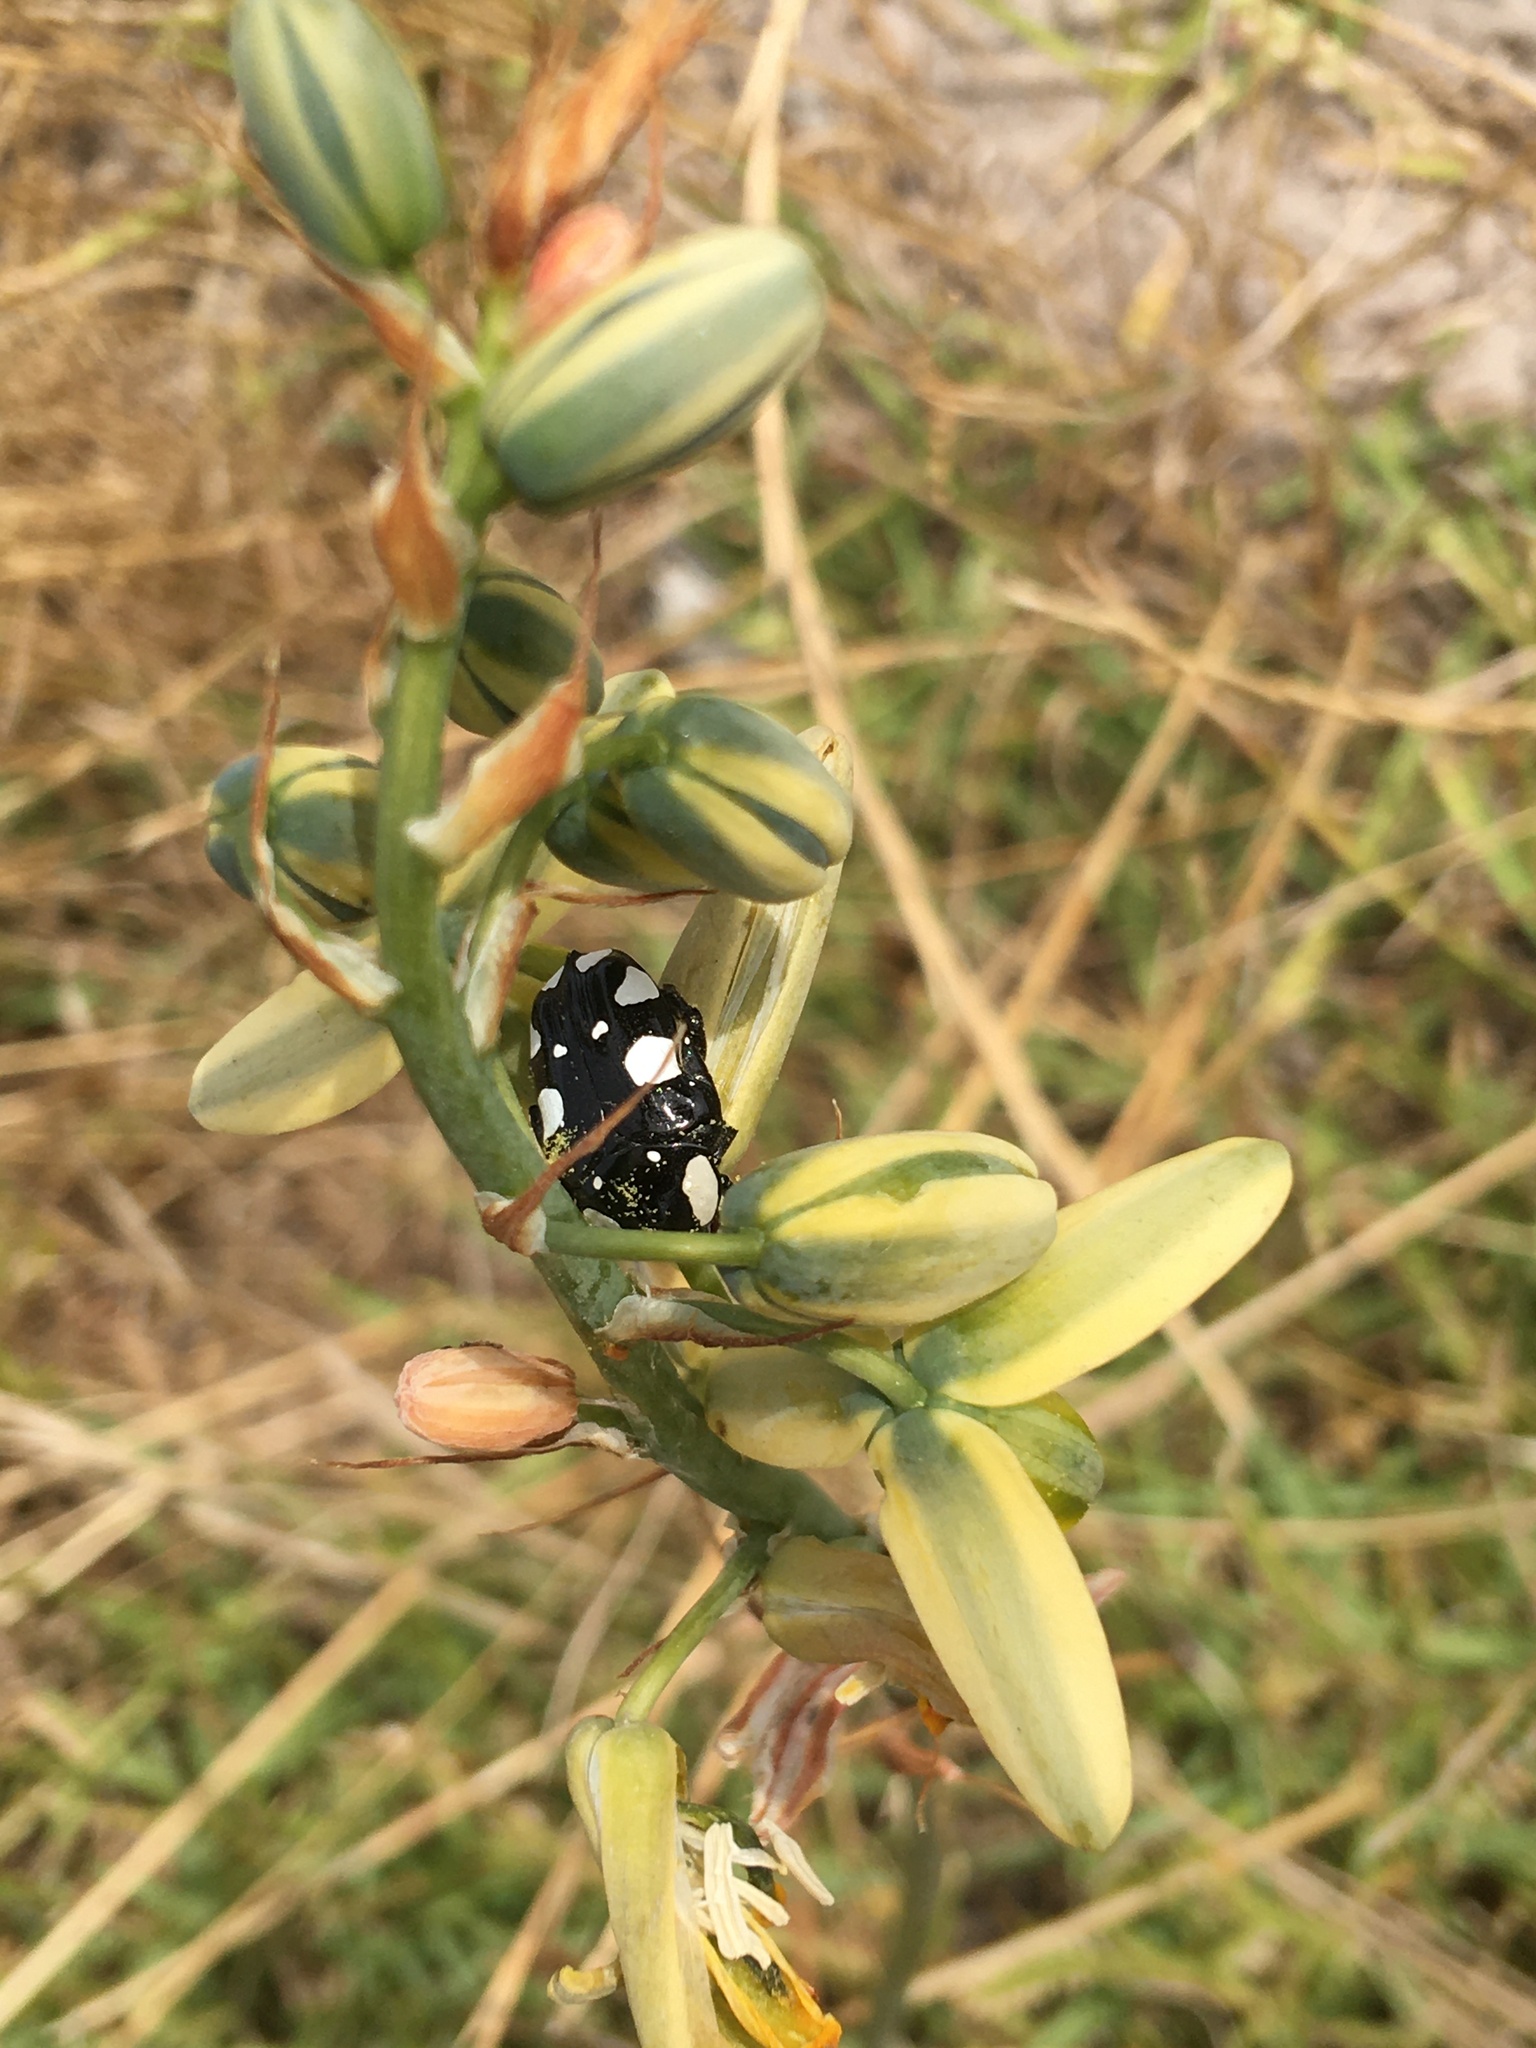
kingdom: Animalia
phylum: Arthropoda
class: Insecta
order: Coleoptera
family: Scarabaeidae
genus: Mausoleopsis
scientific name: Mausoleopsis amabilis
